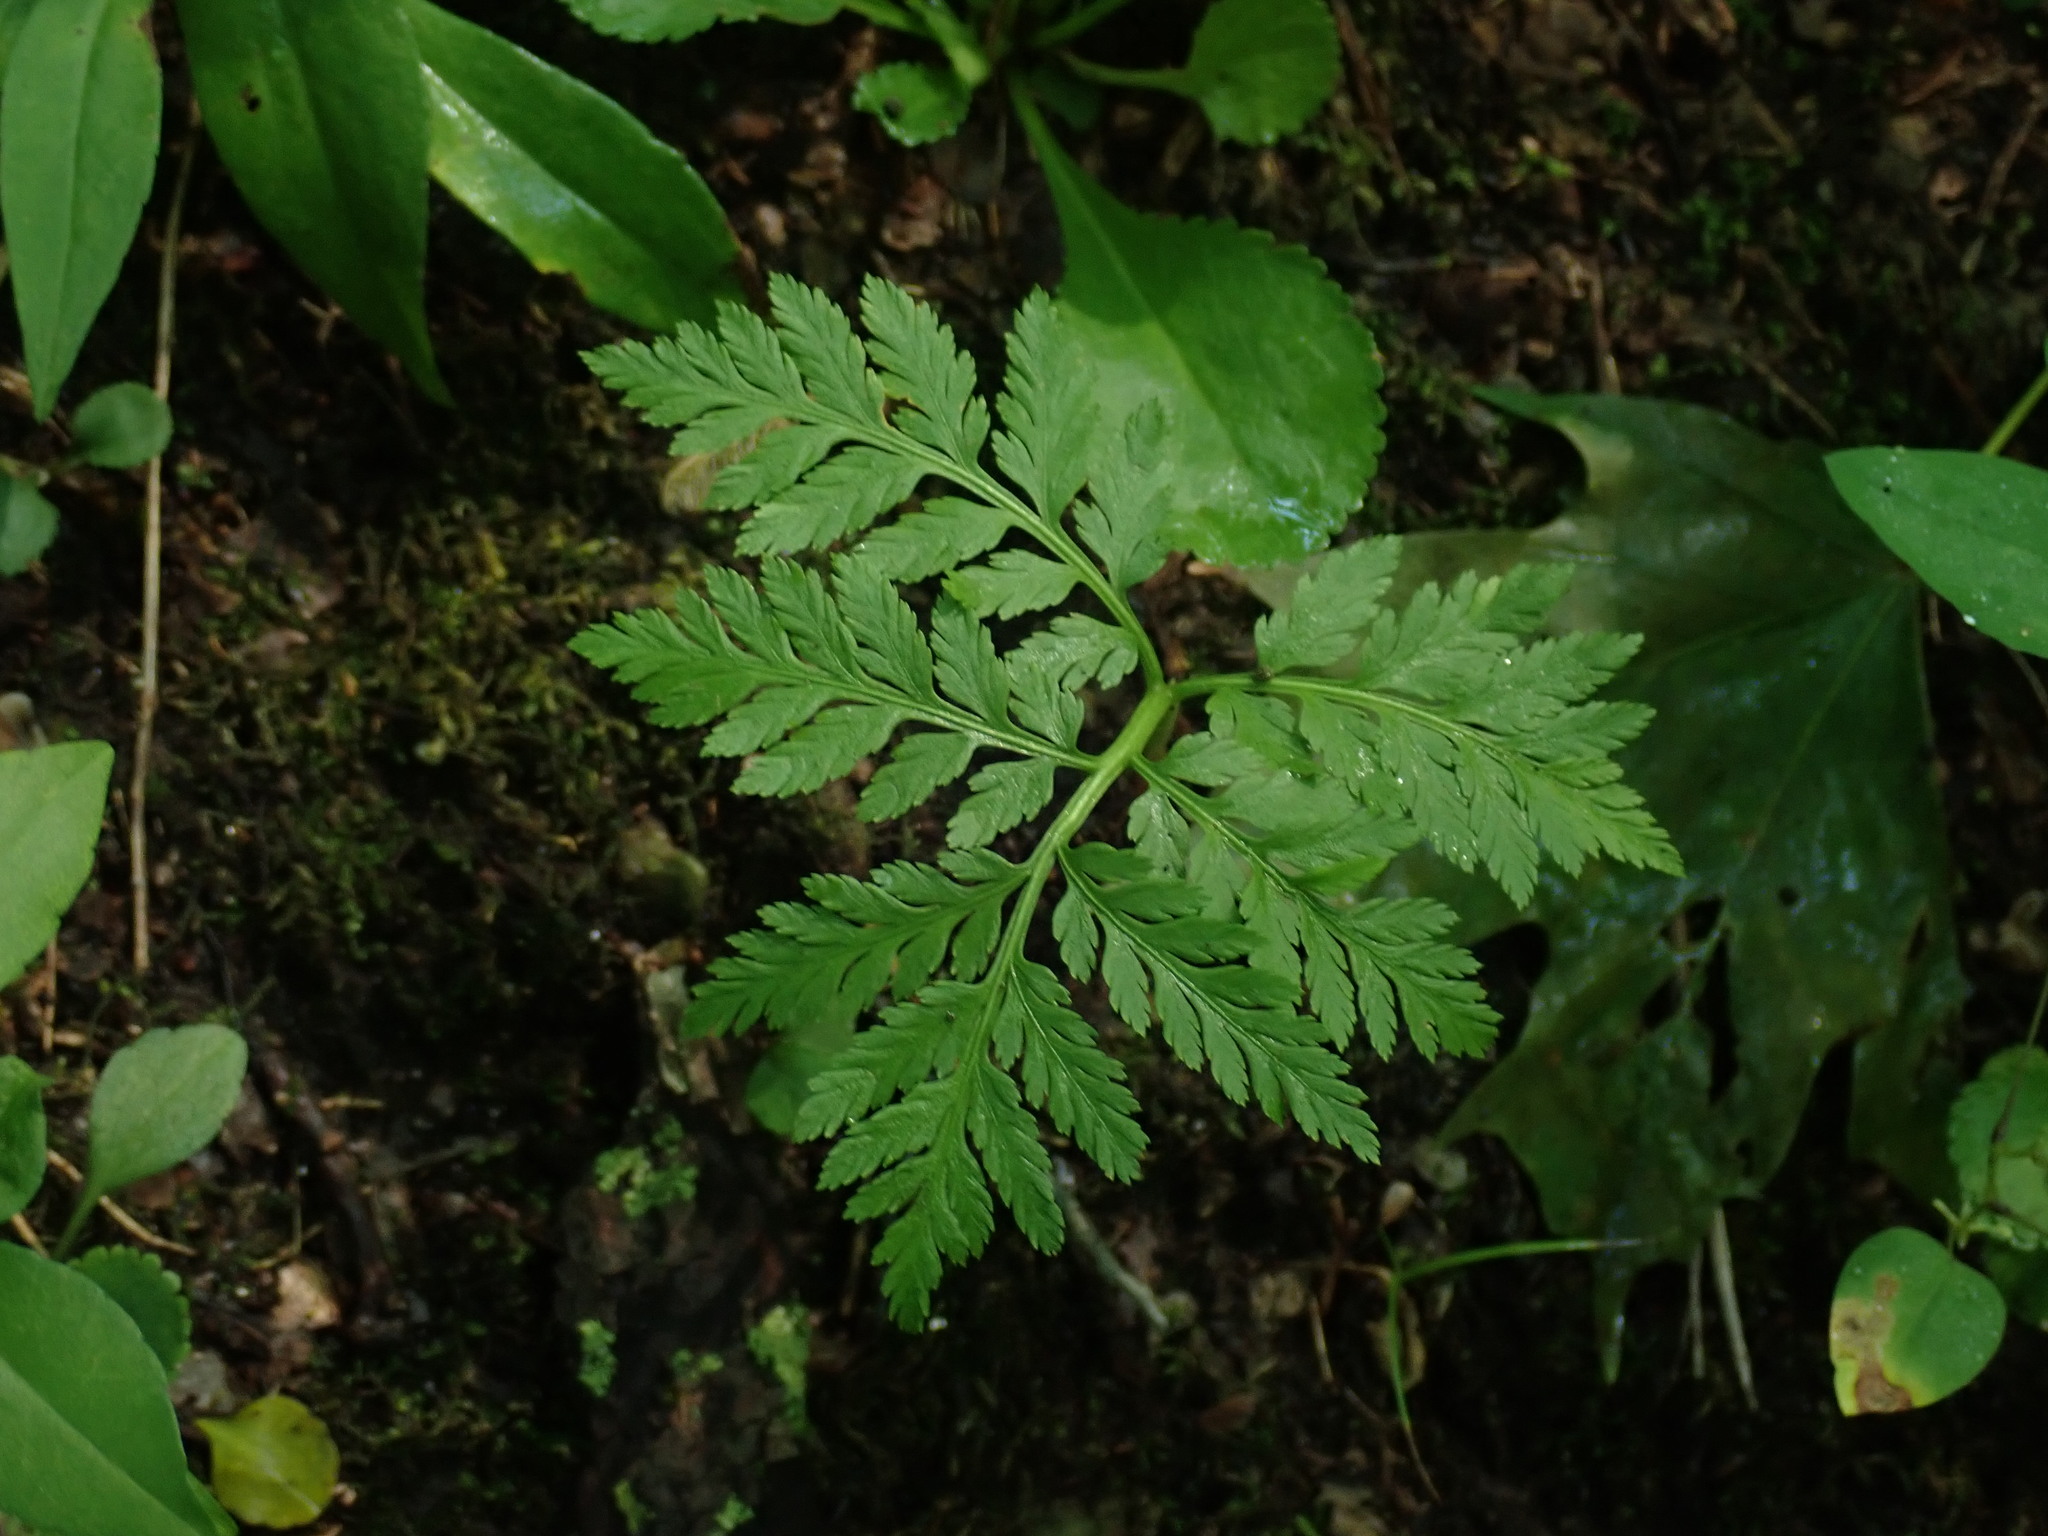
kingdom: Plantae
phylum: Tracheophyta
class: Polypodiopsida
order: Ophioglossales
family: Ophioglossaceae
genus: Botrypus
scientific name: Botrypus virginianus
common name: Common grapefern
